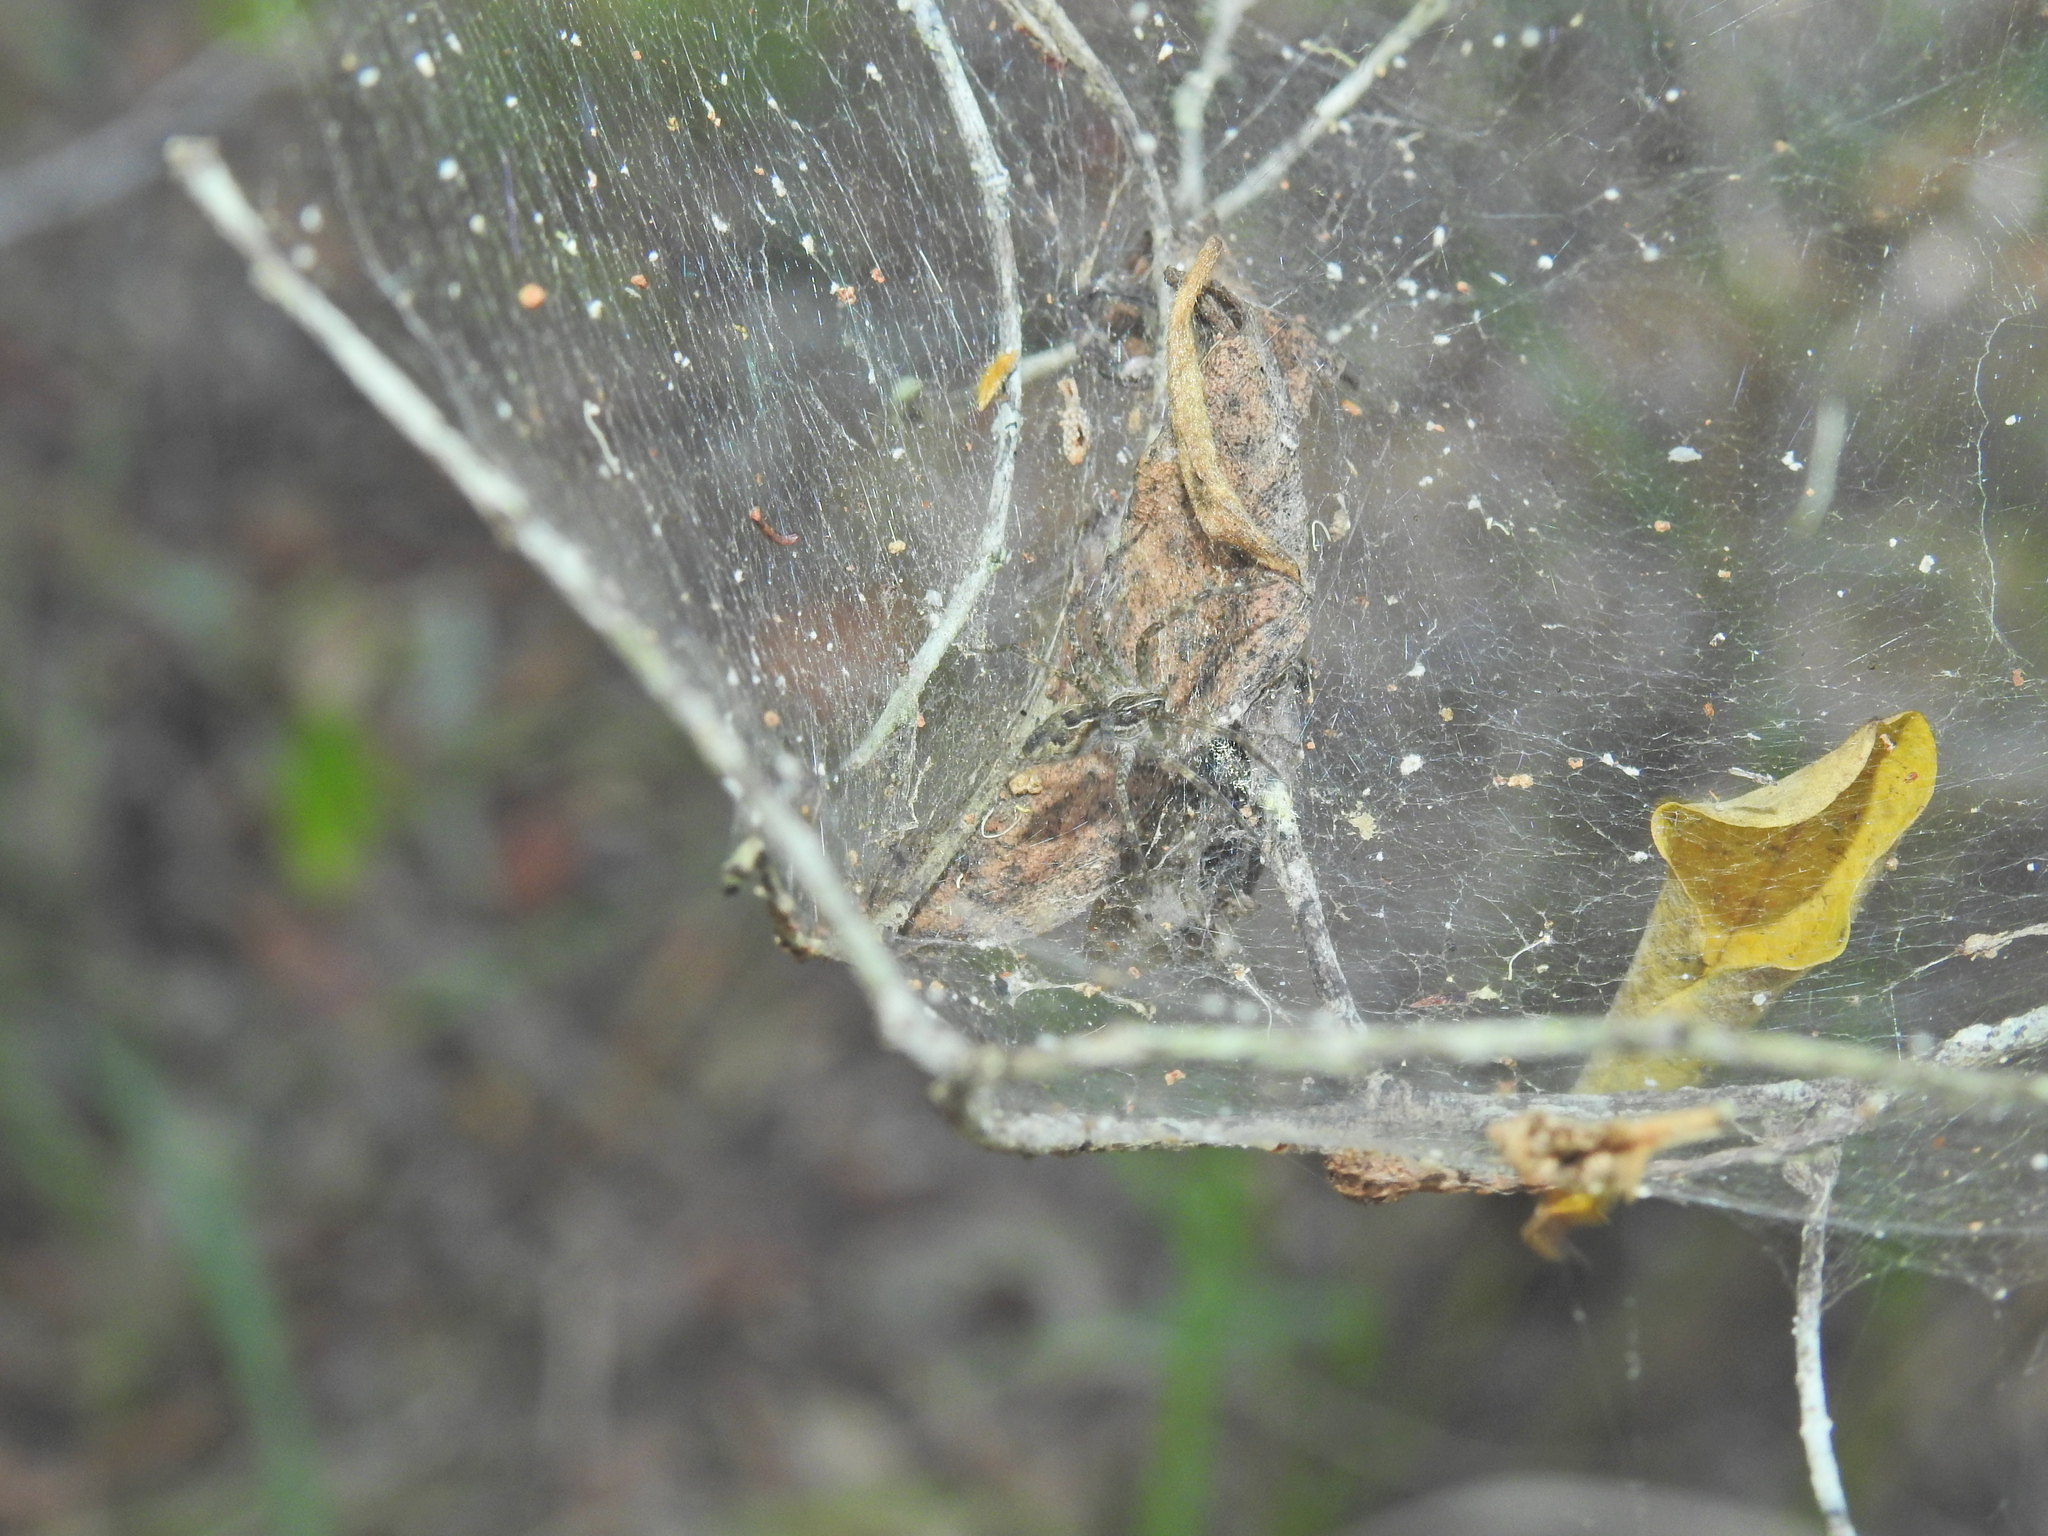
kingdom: Animalia
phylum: Arthropoda
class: Arachnida
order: Araneae
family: Pisauridae
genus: Dendrolycosa
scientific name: Dendrolycosa icadia
